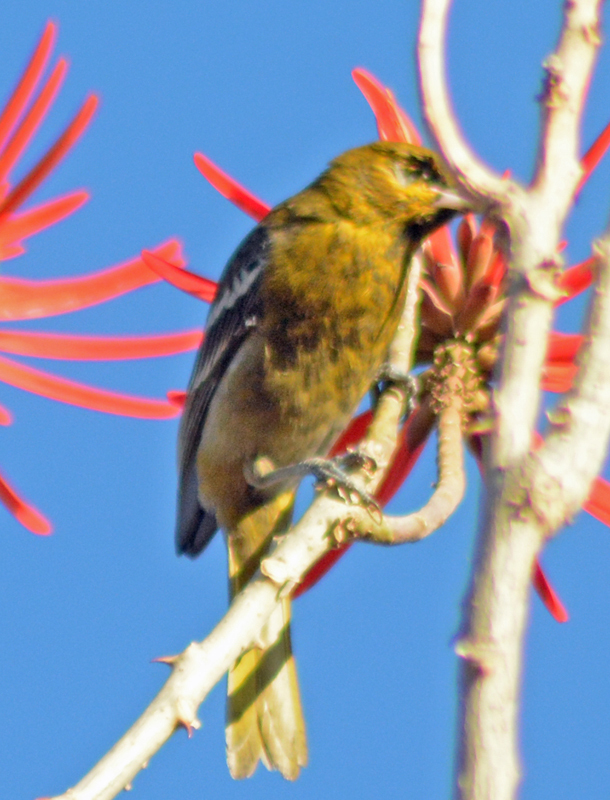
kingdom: Animalia
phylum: Chordata
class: Aves
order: Passeriformes
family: Icteridae
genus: Icterus
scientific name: Icterus abeillei
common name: Black-backed oriole
